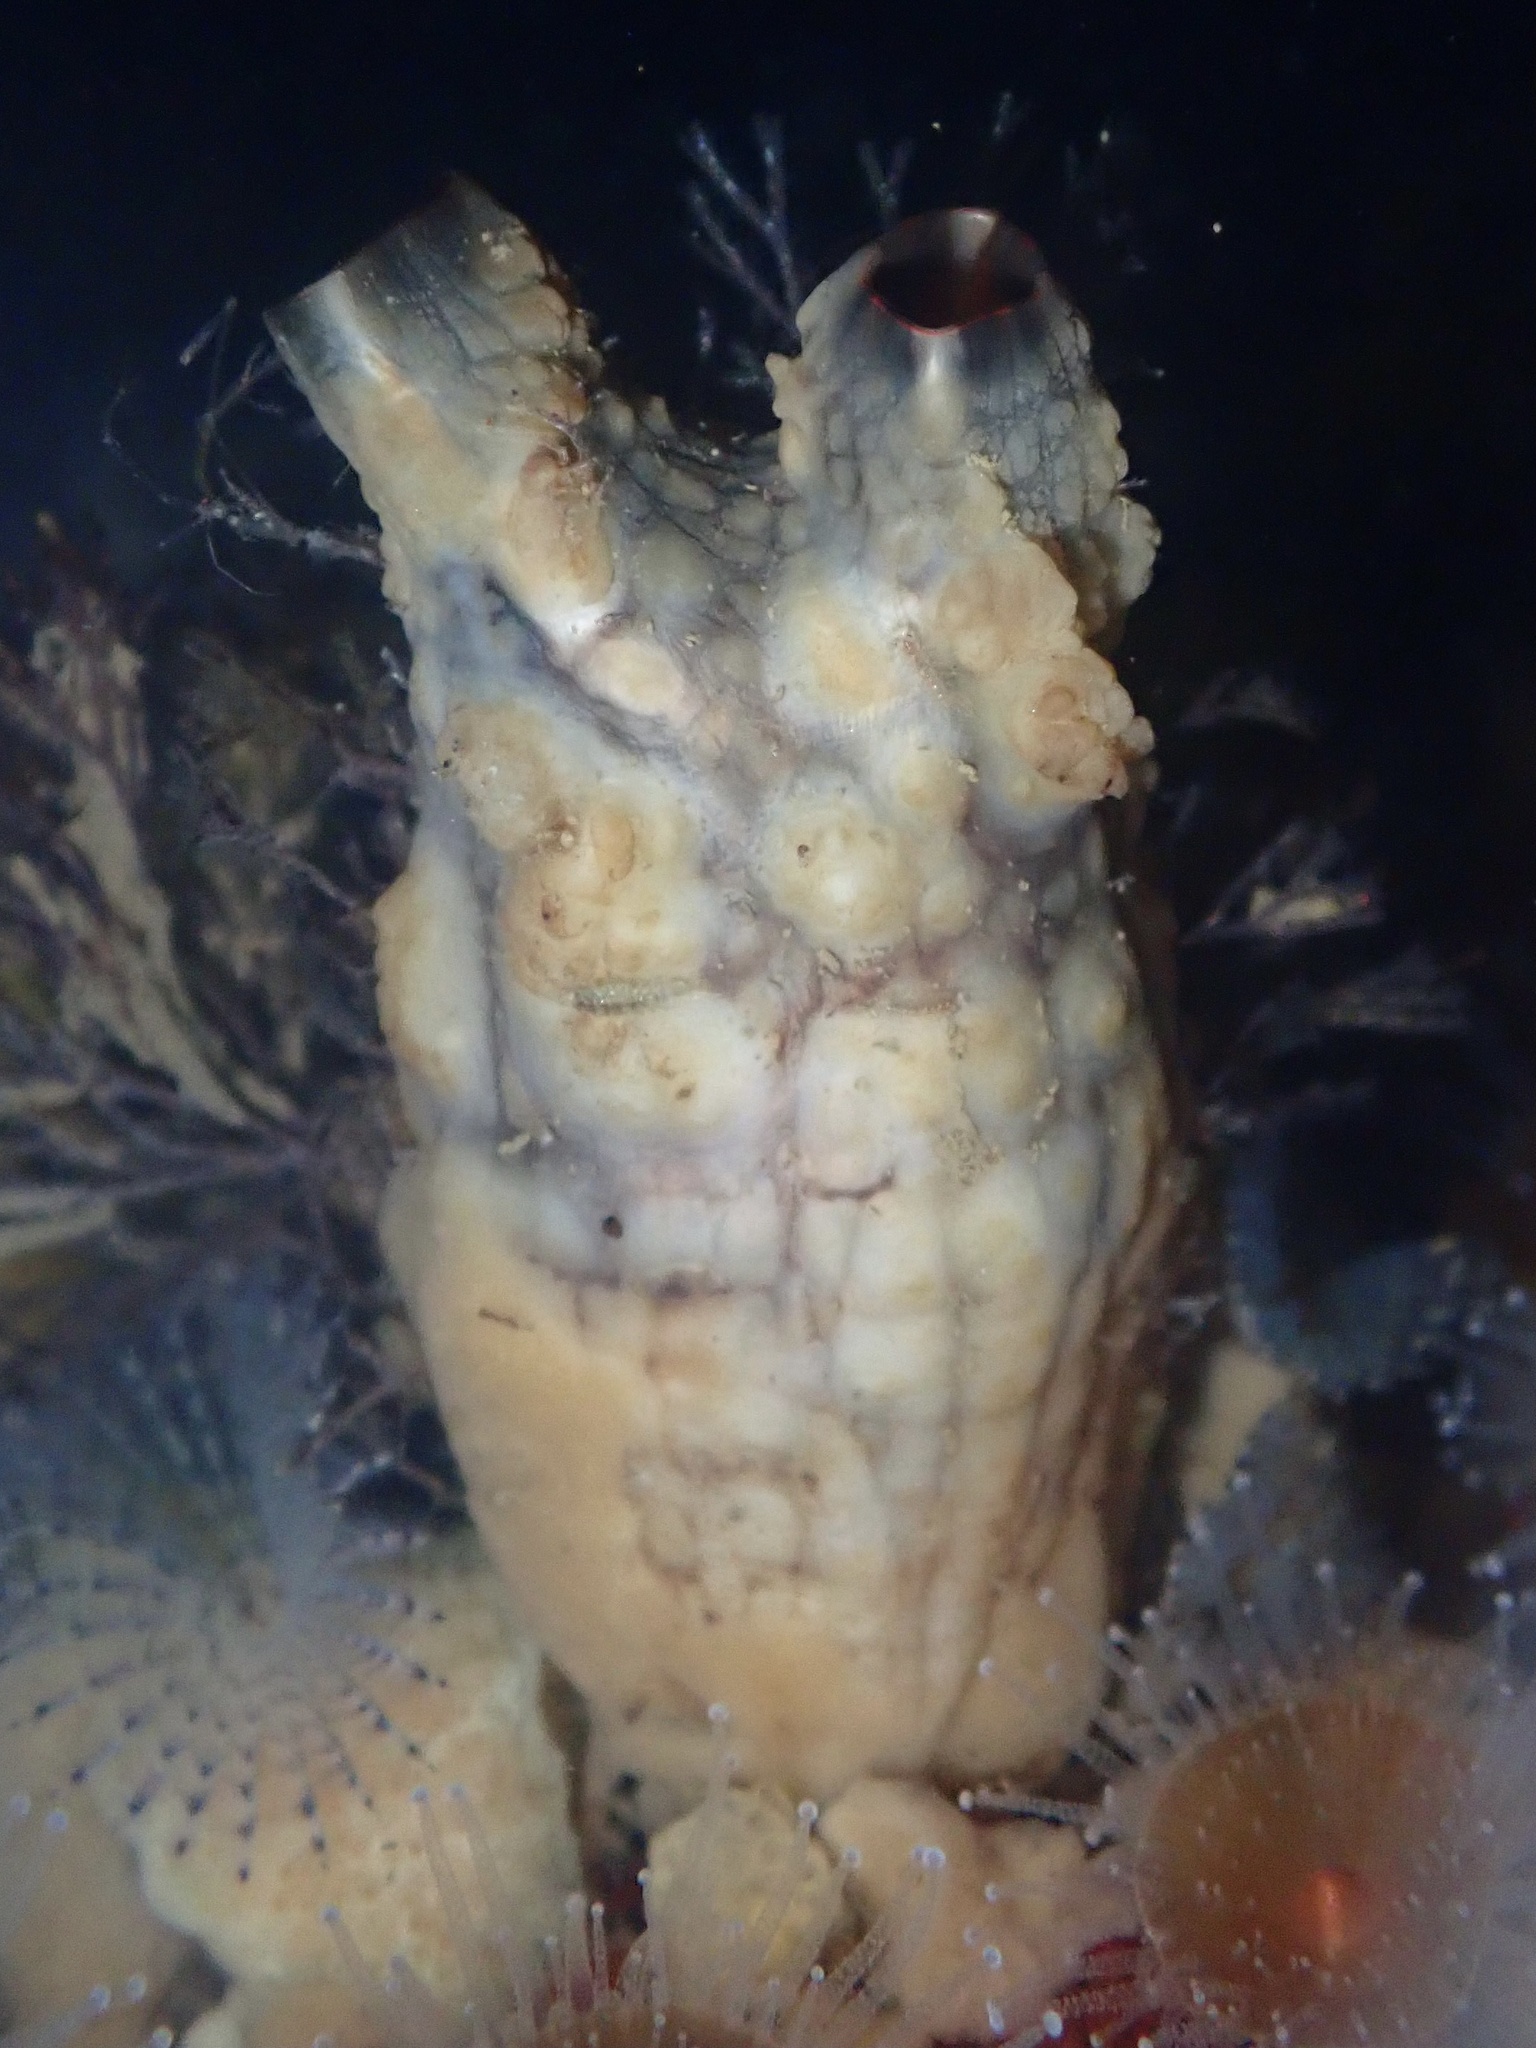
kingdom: Animalia
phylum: Chordata
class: Ascidiacea
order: Stolidobranchia
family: Styelidae
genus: Styela
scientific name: Styela clava
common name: Leathery sea squirt
